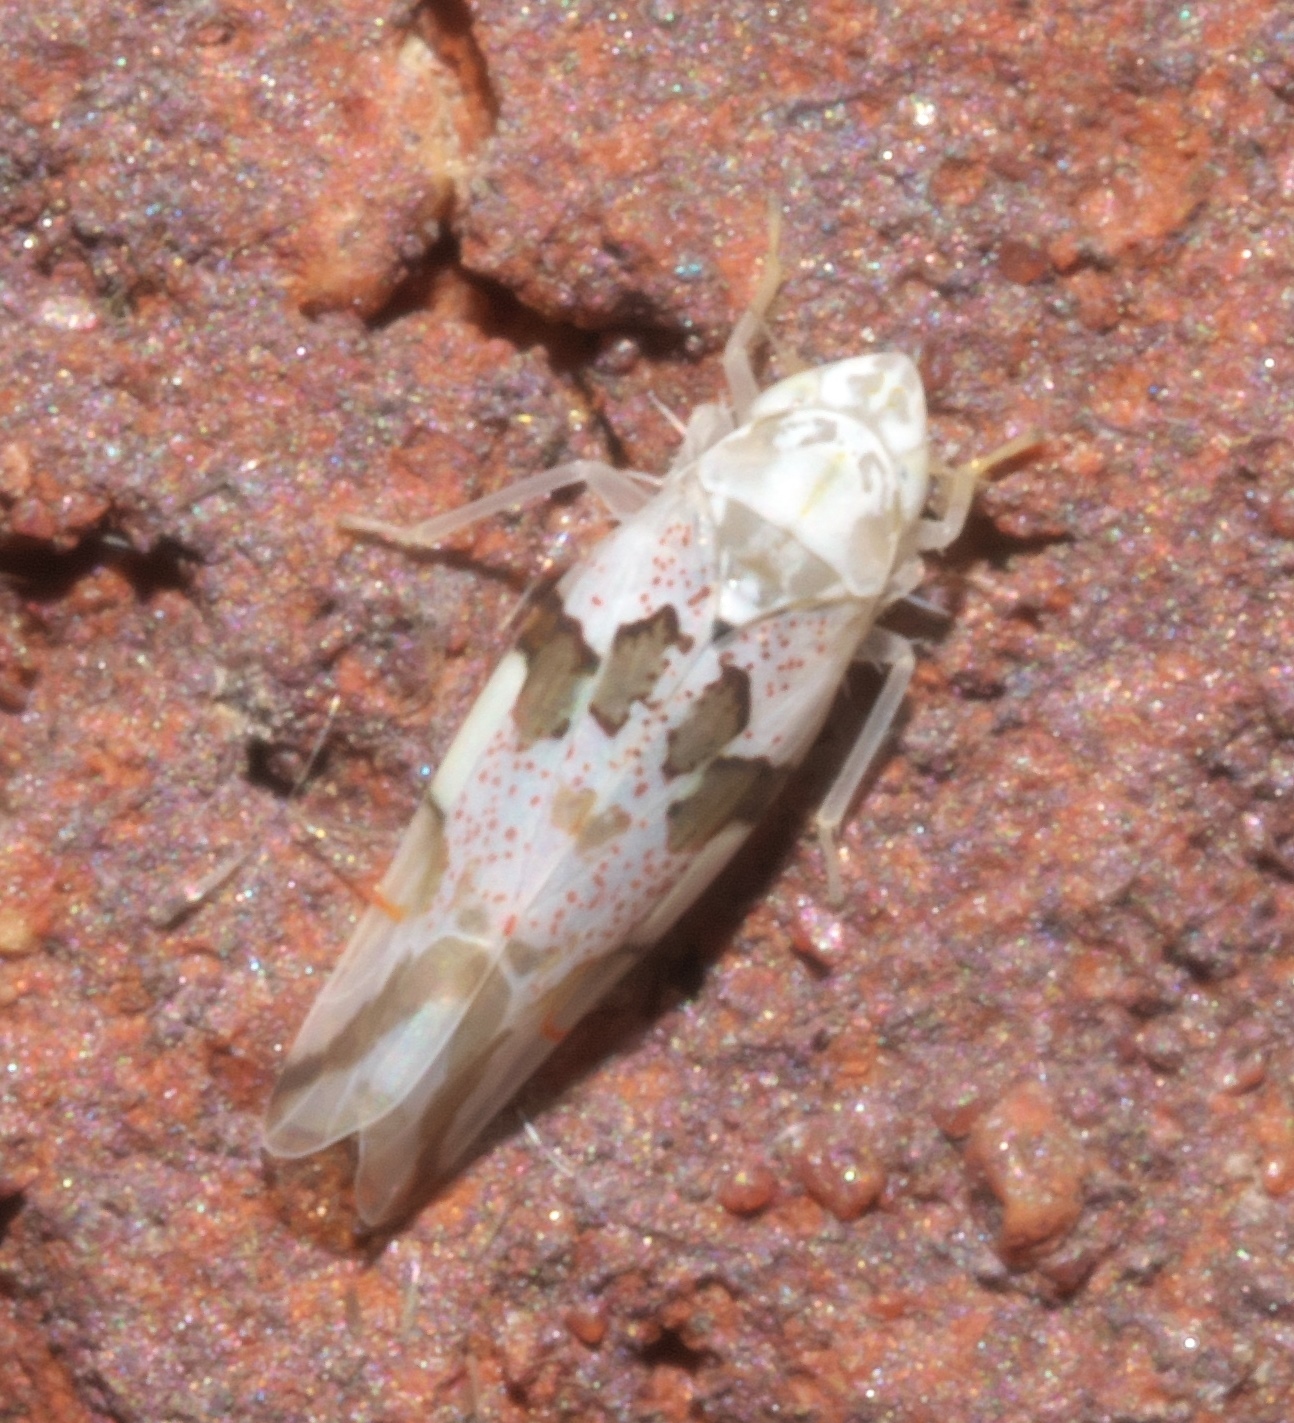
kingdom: Animalia
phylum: Arthropoda
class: Insecta
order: Hemiptera
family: Cicadellidae
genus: Hymetta
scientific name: Hymetta trifasciata
